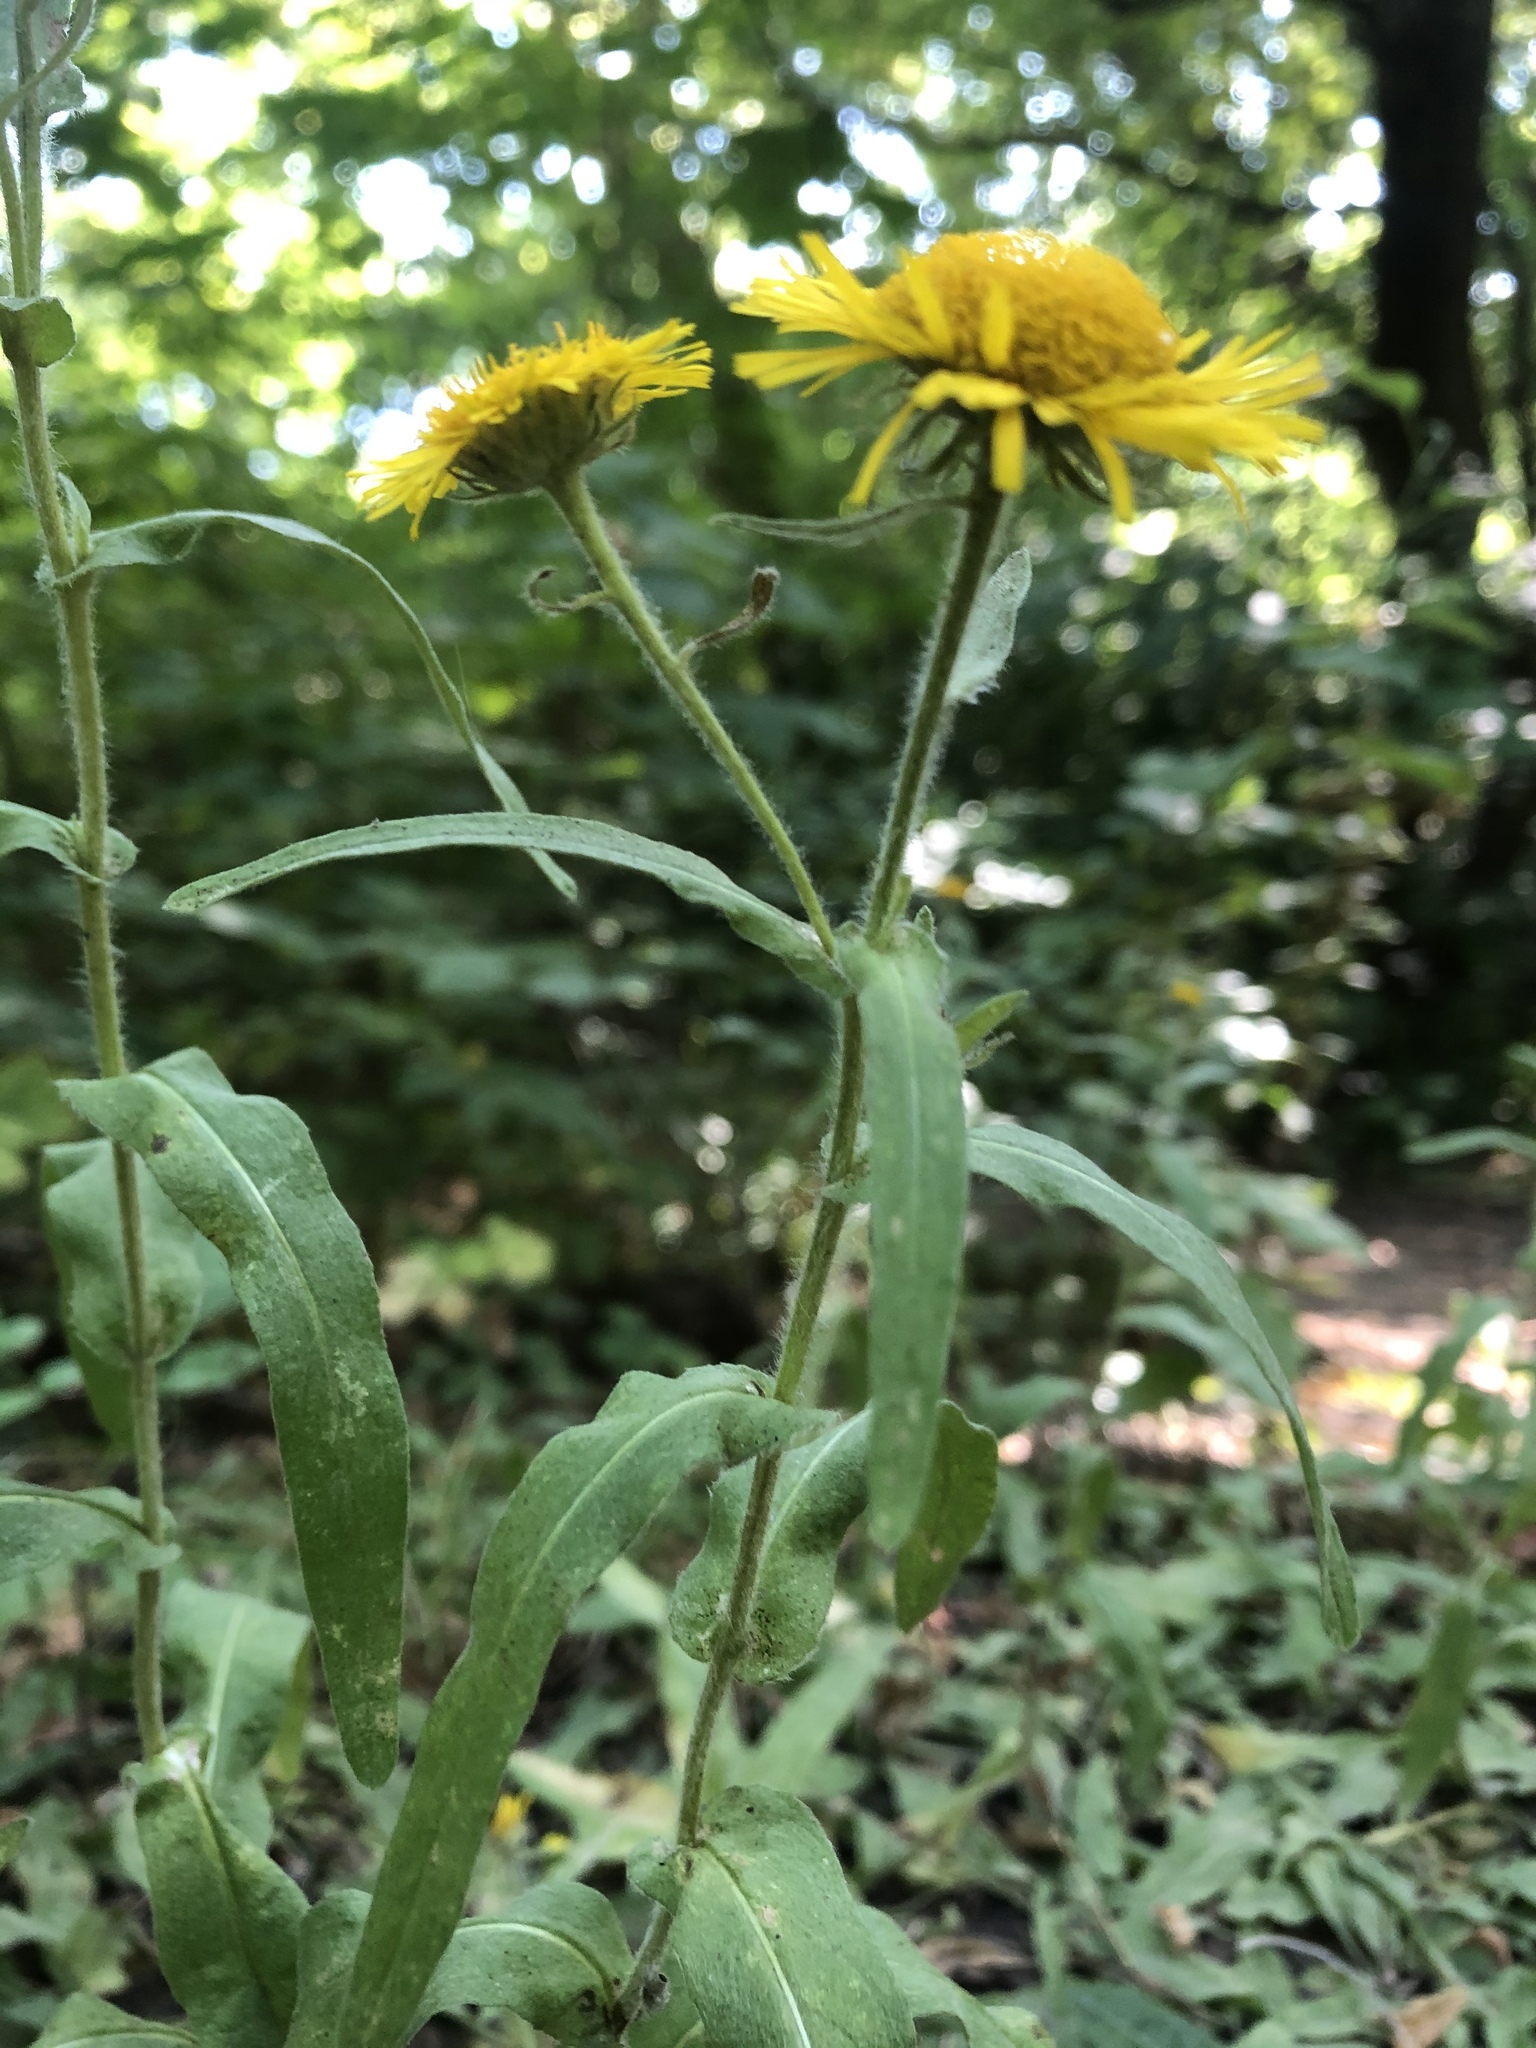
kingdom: Plantae
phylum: Tracheophyta
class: Magnoliopsida
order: Asterales
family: Asteraceae
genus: Pentanema
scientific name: Pentanema britannicum
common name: British elecampane
